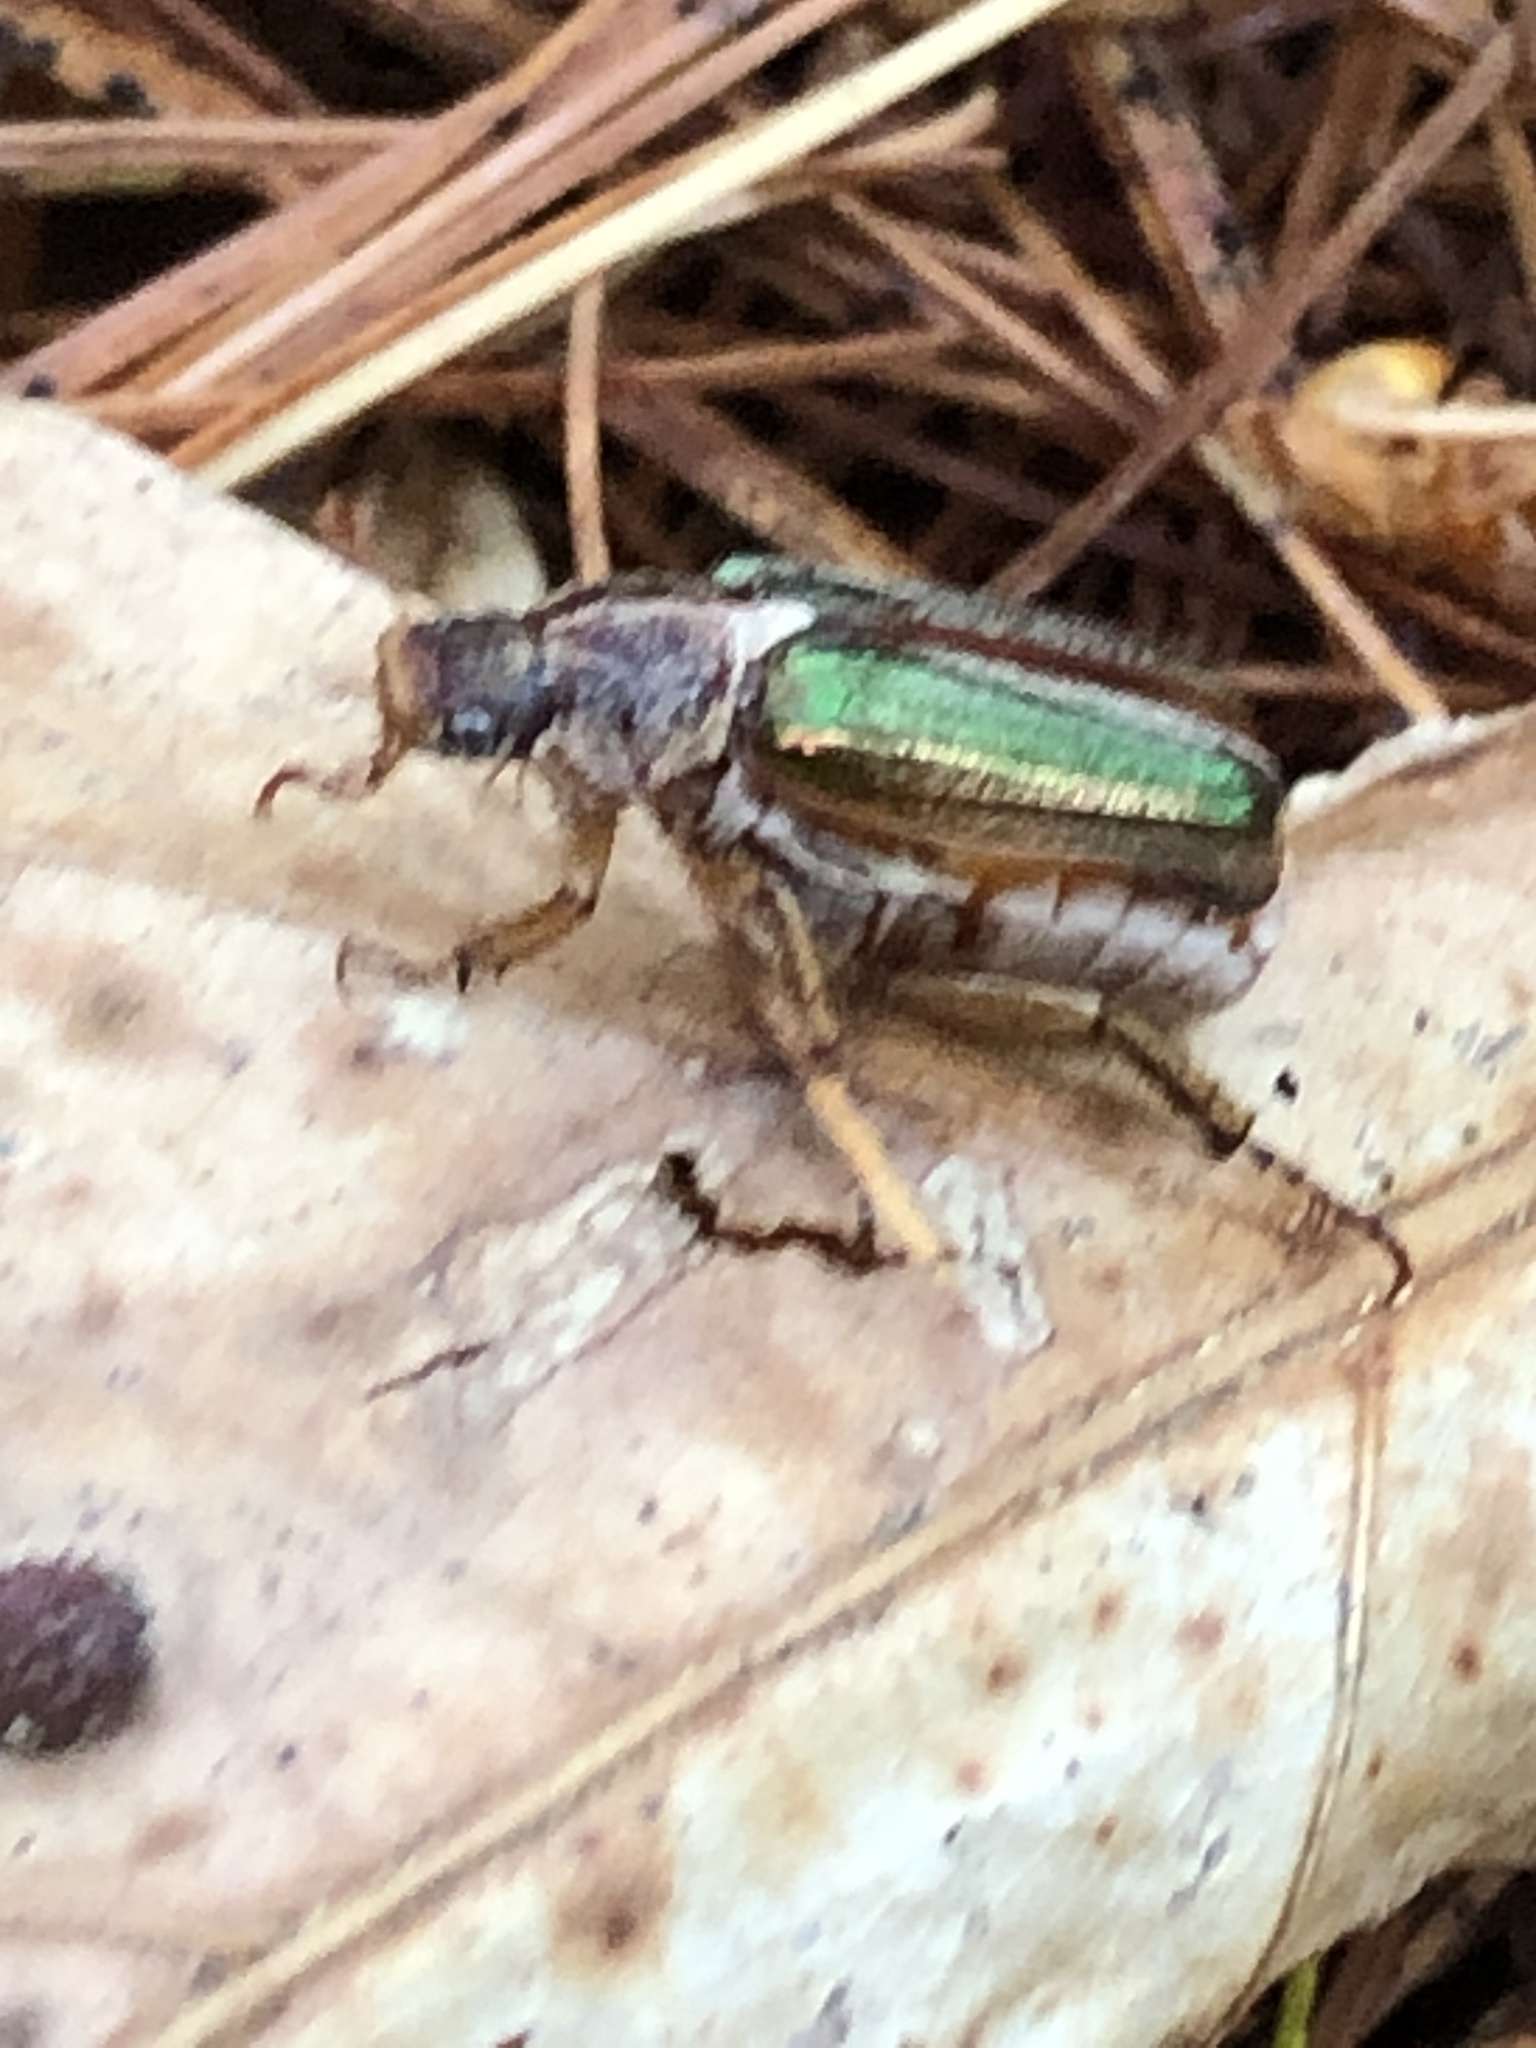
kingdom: Animalia
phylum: Arthropoda
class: Insecta
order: Coleoptera
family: Scarabaeidae
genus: Dichelonyx
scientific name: Dichelonyx albicollis
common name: White-necked pine-beetle
